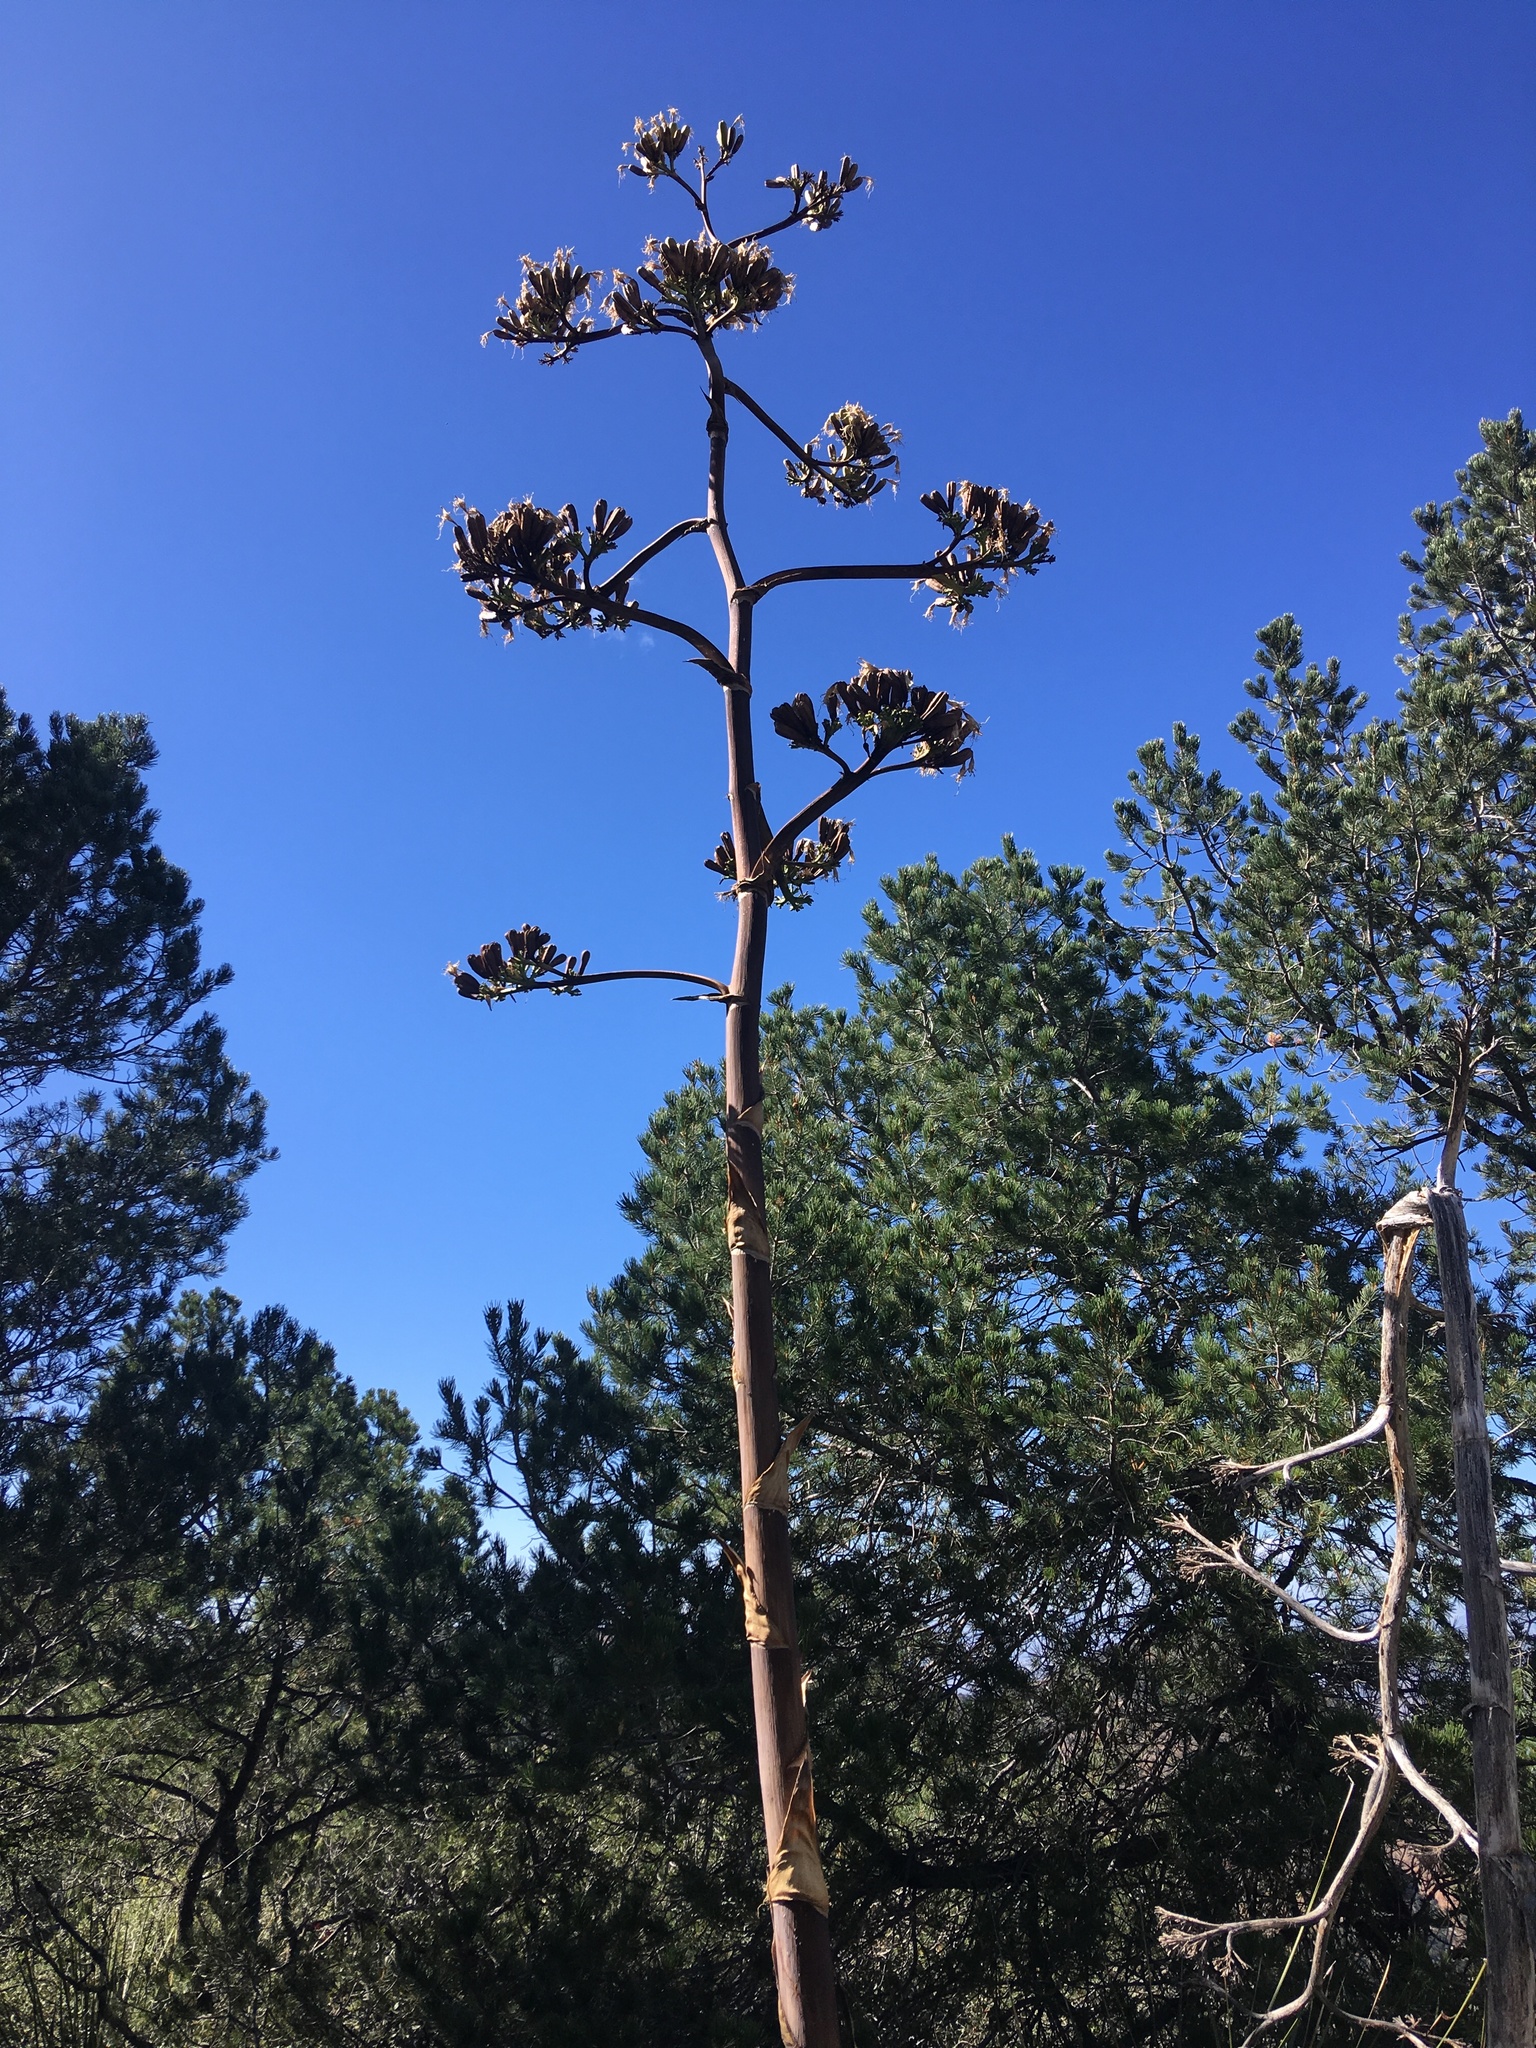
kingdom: Plantae
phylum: Tracheophyta
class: Liliopsida
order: Asparagales
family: Asparagaceae
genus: Agave
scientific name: Agave havardiana
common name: Havard agave
